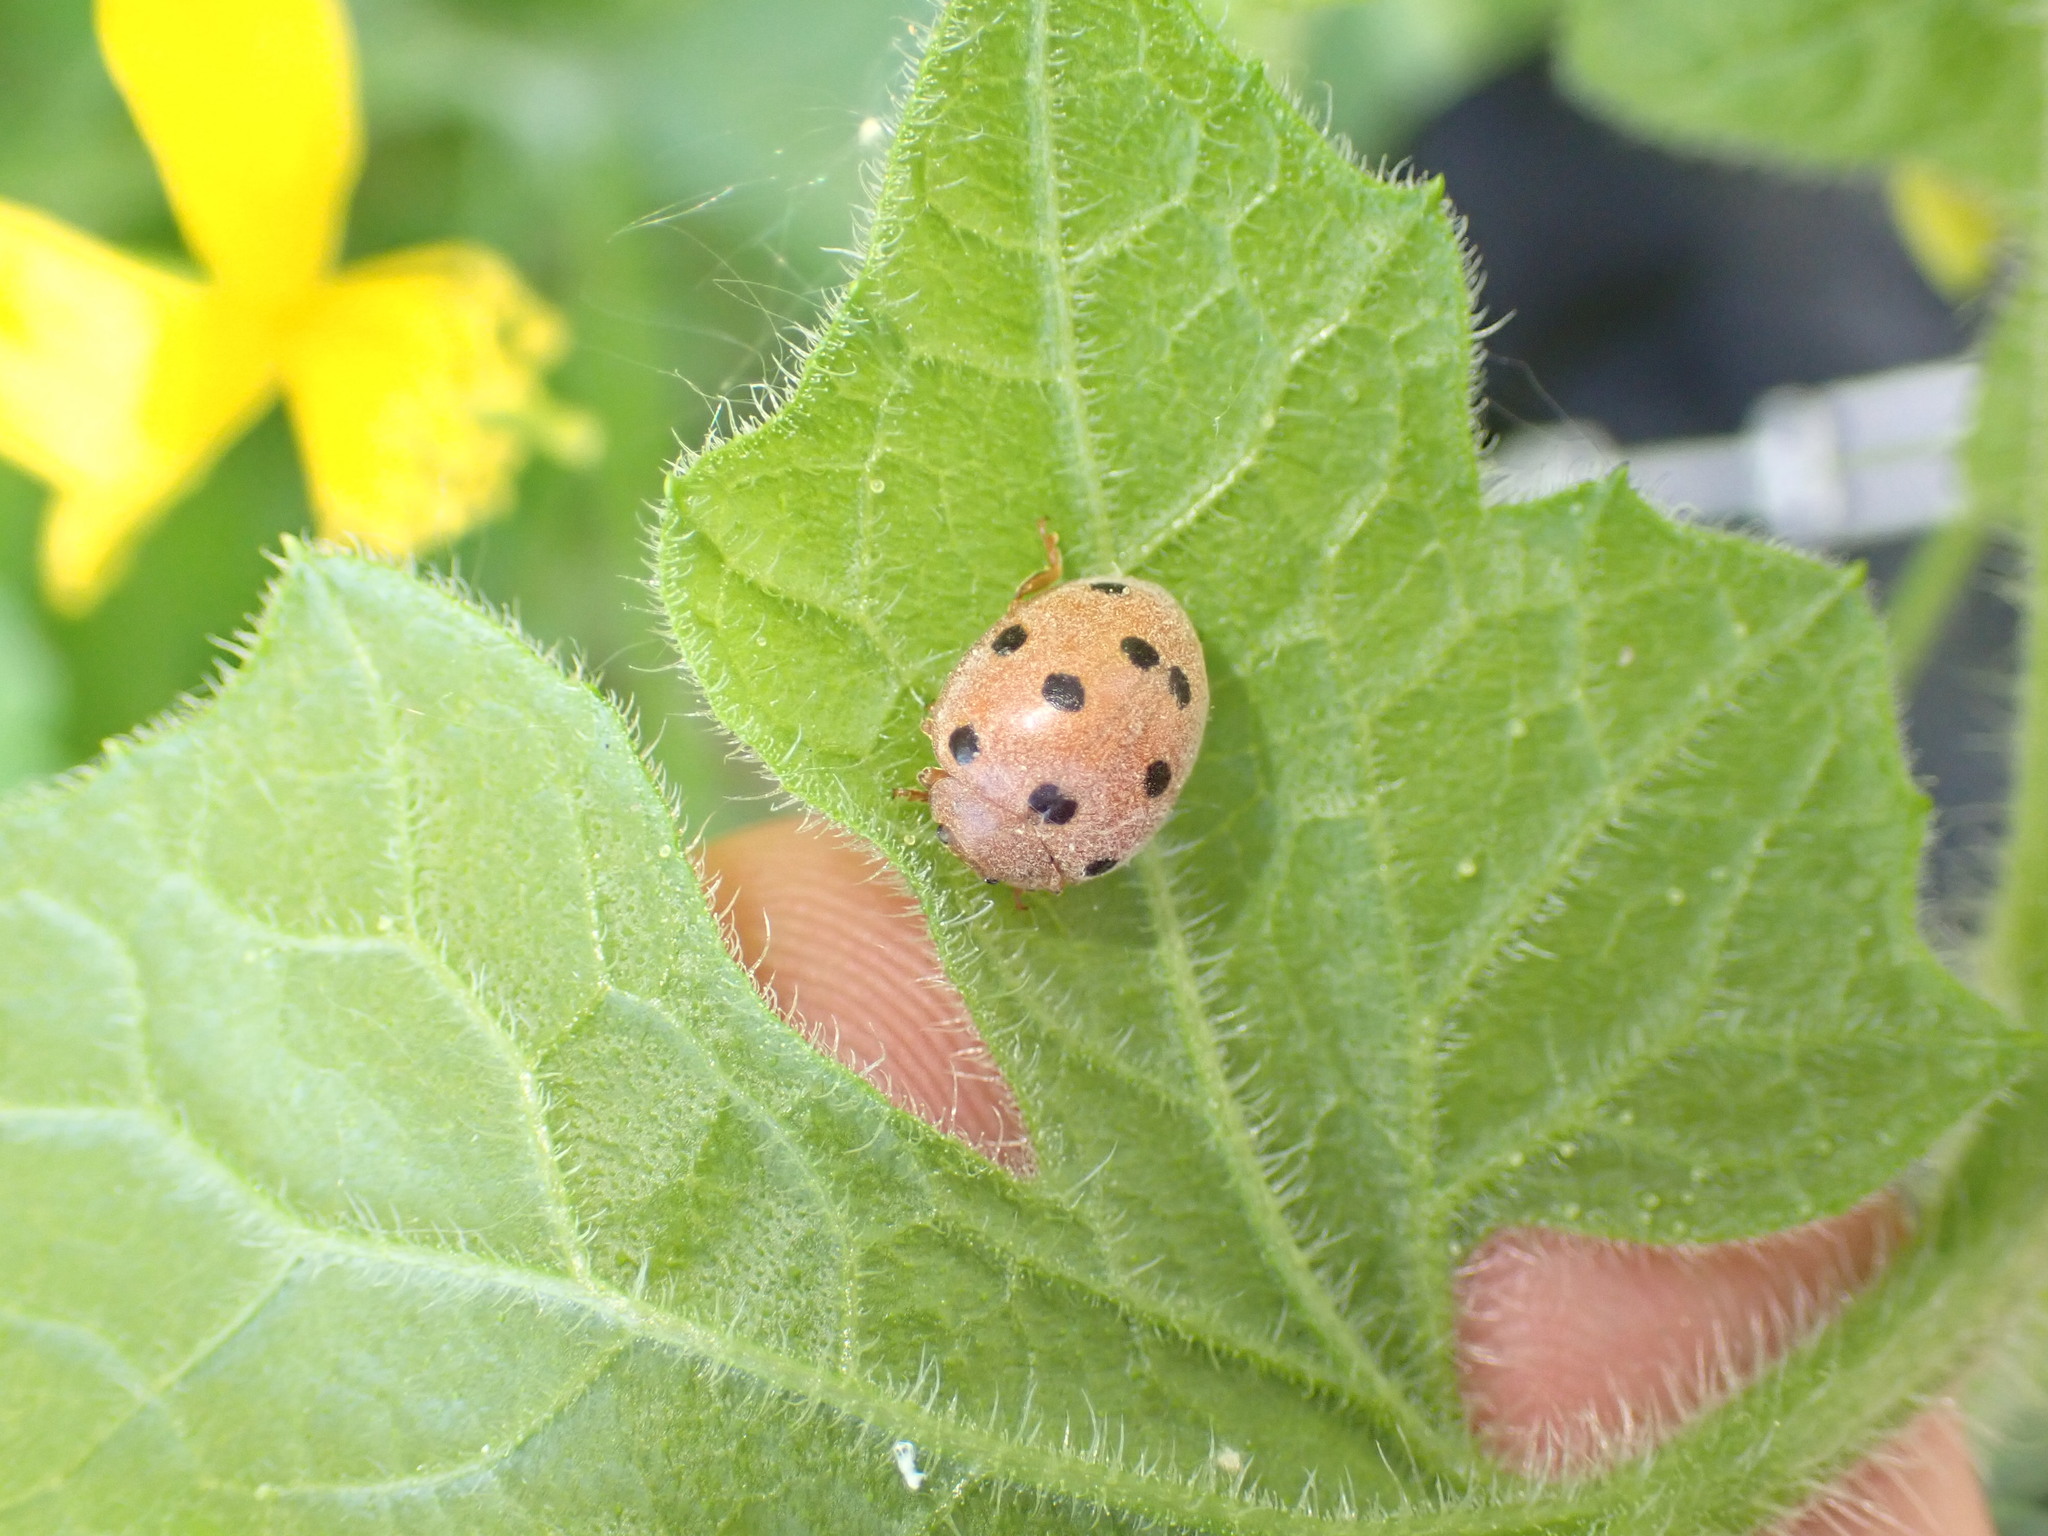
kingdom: Animalia
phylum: Arthropoda
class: Insecta
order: Coleoptera
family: Coccinellidae
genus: Henosepilachna
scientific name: Henosepilachna argus
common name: Bryony ladybird
